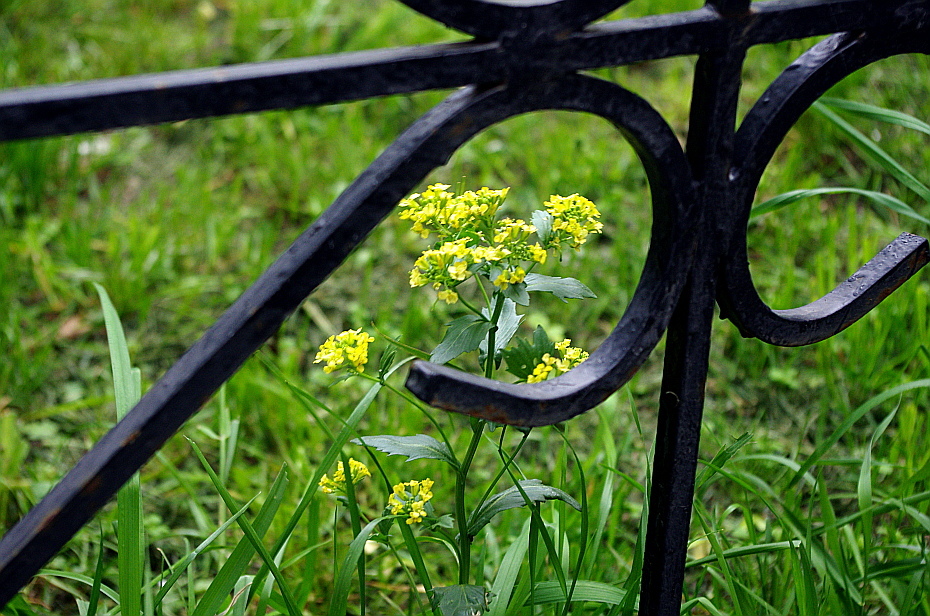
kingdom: Plantae
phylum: Tracheophyta
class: Magnoliopsida
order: Brassicales
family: Brassicaceae
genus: Barbarea
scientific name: Barbarea vulgaris
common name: Cressy-greens
